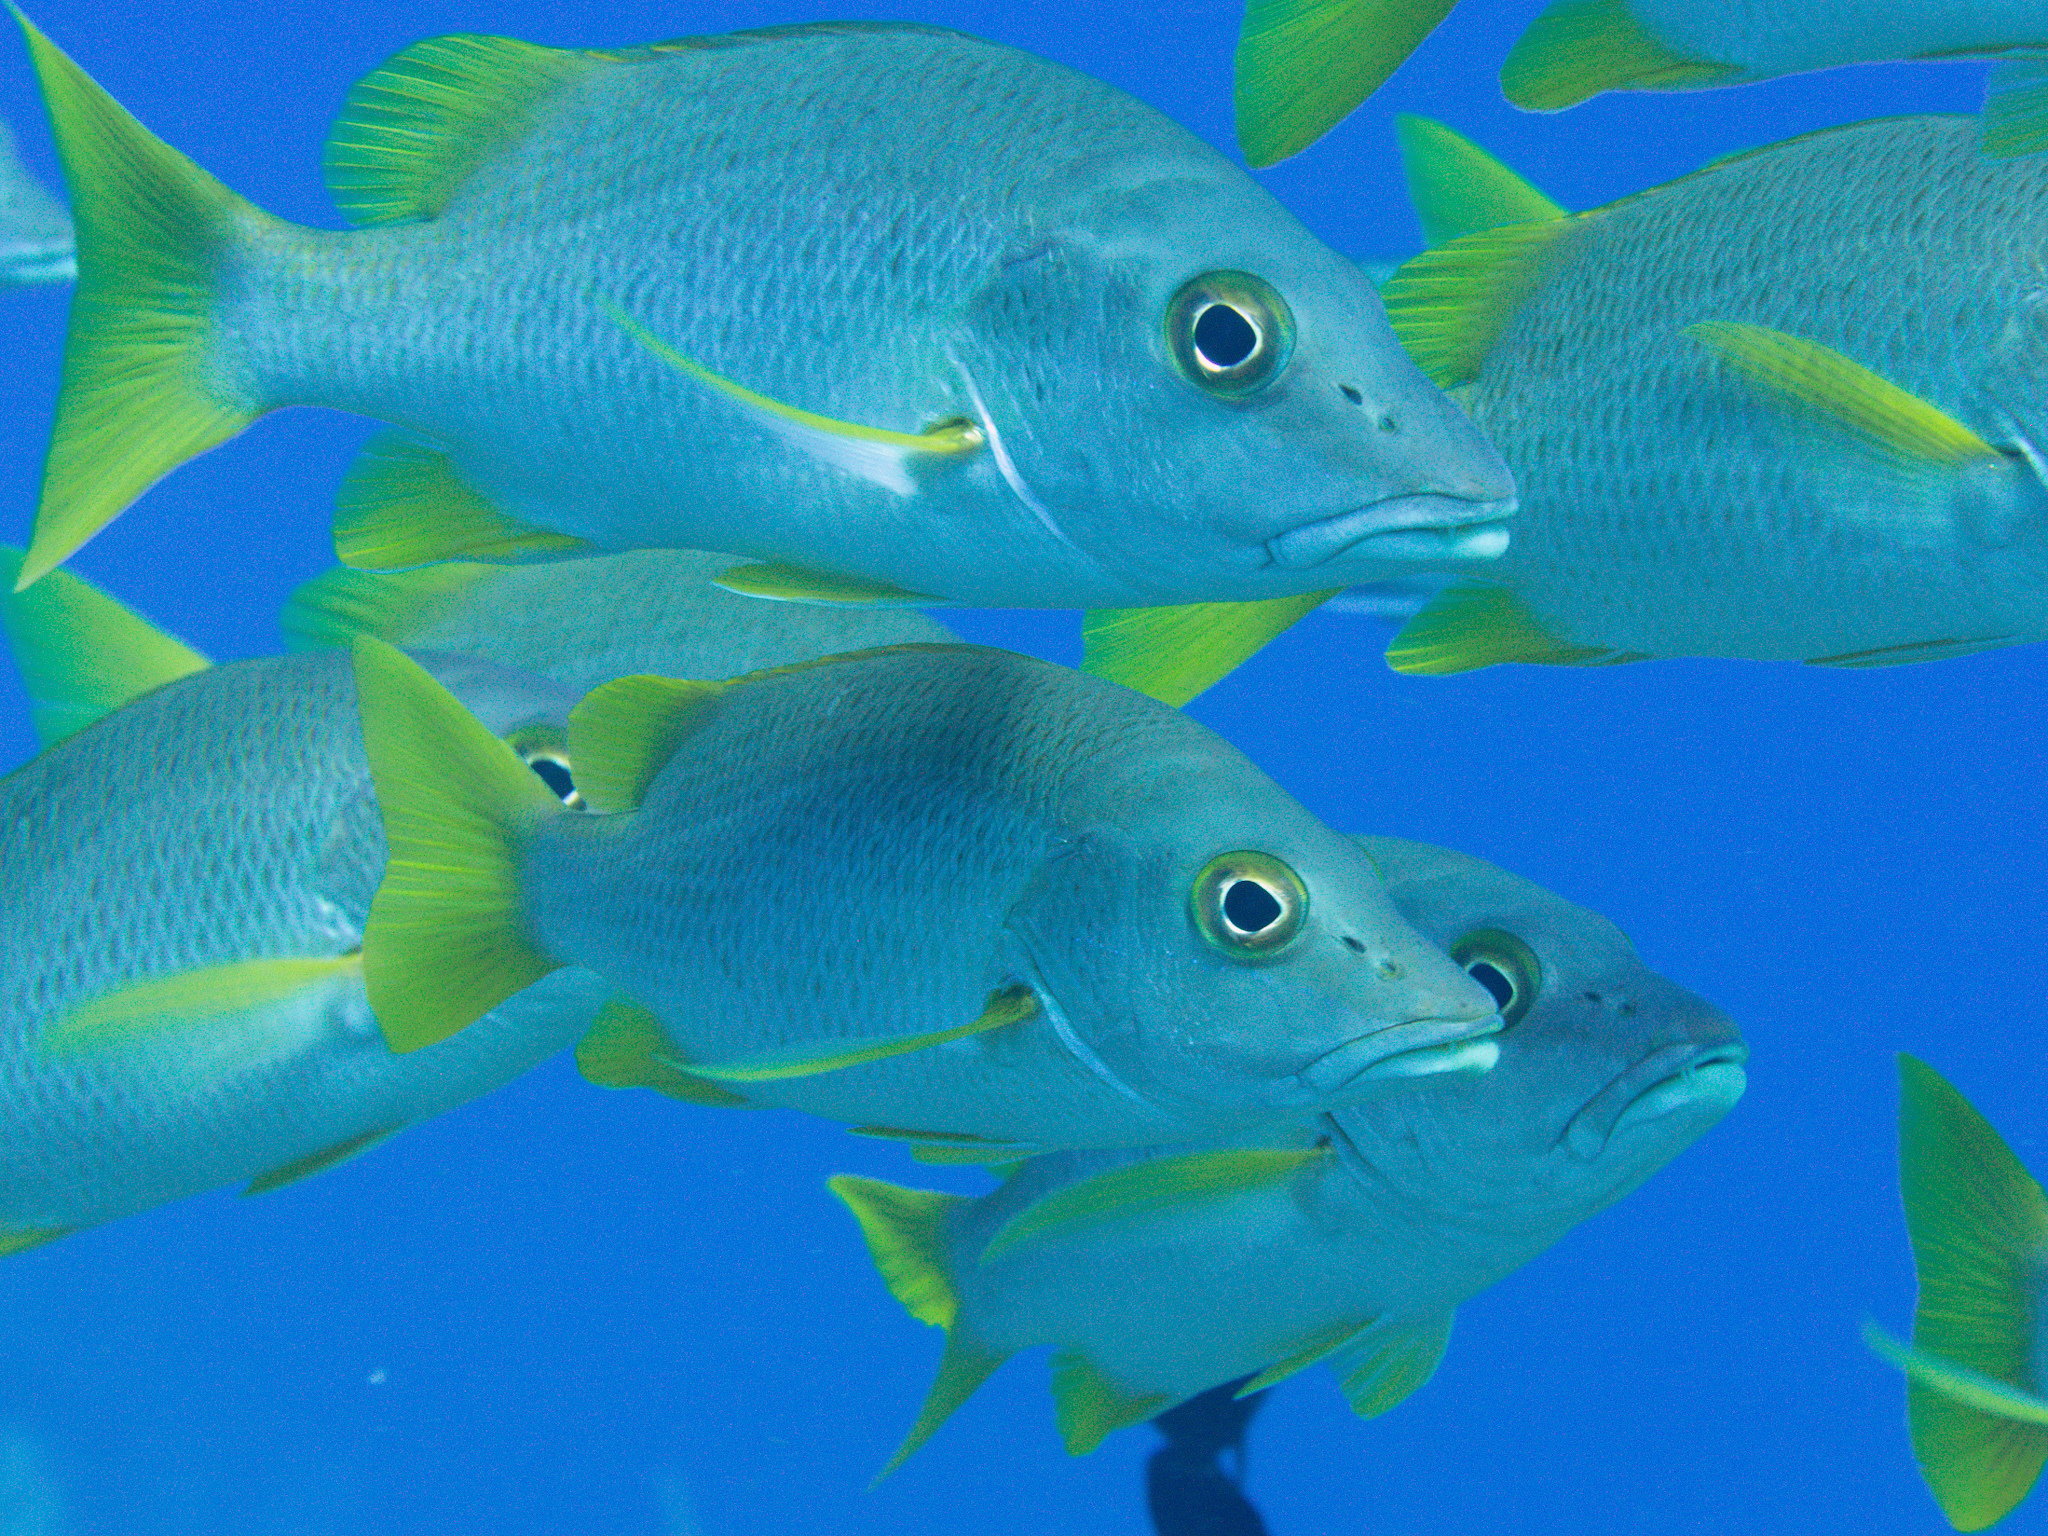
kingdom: Animalia
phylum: Chordata
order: Perciformes
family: Lutjanidae
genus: Lutjanus
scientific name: Lutjanus apodus
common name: Schoolmaster
